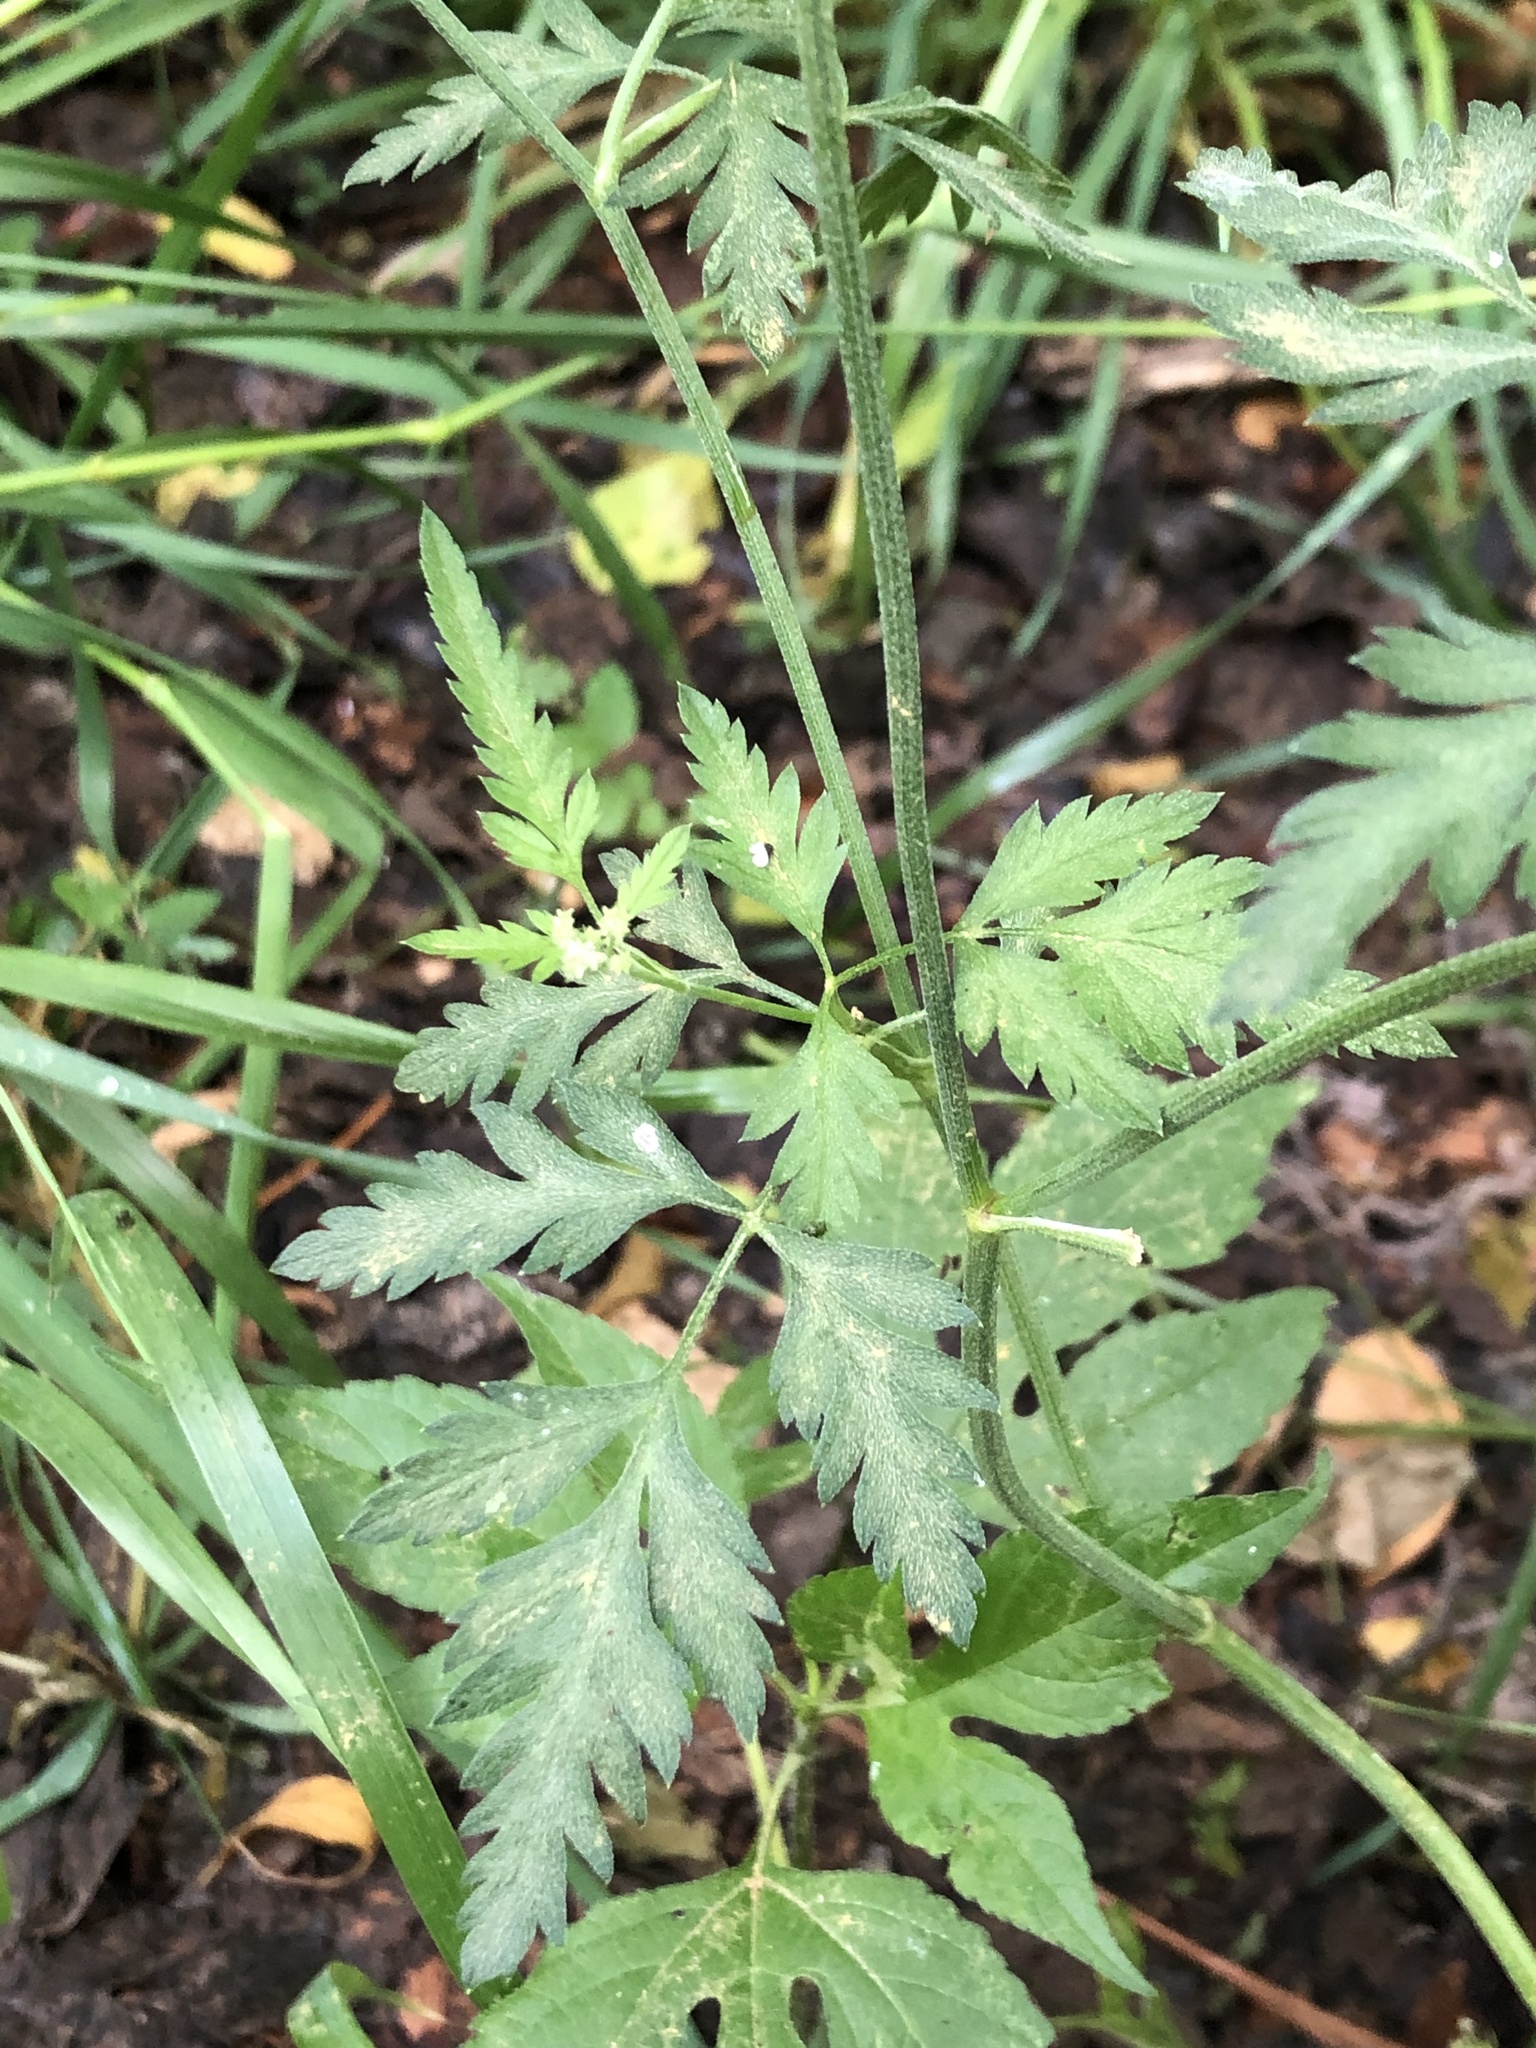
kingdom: Plantae
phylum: Tracheophyta
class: Magnoliopsida
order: Apiales
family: Apiaceae
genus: Torilis
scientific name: Torilis arvensis
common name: Spreading hedge-parsley
